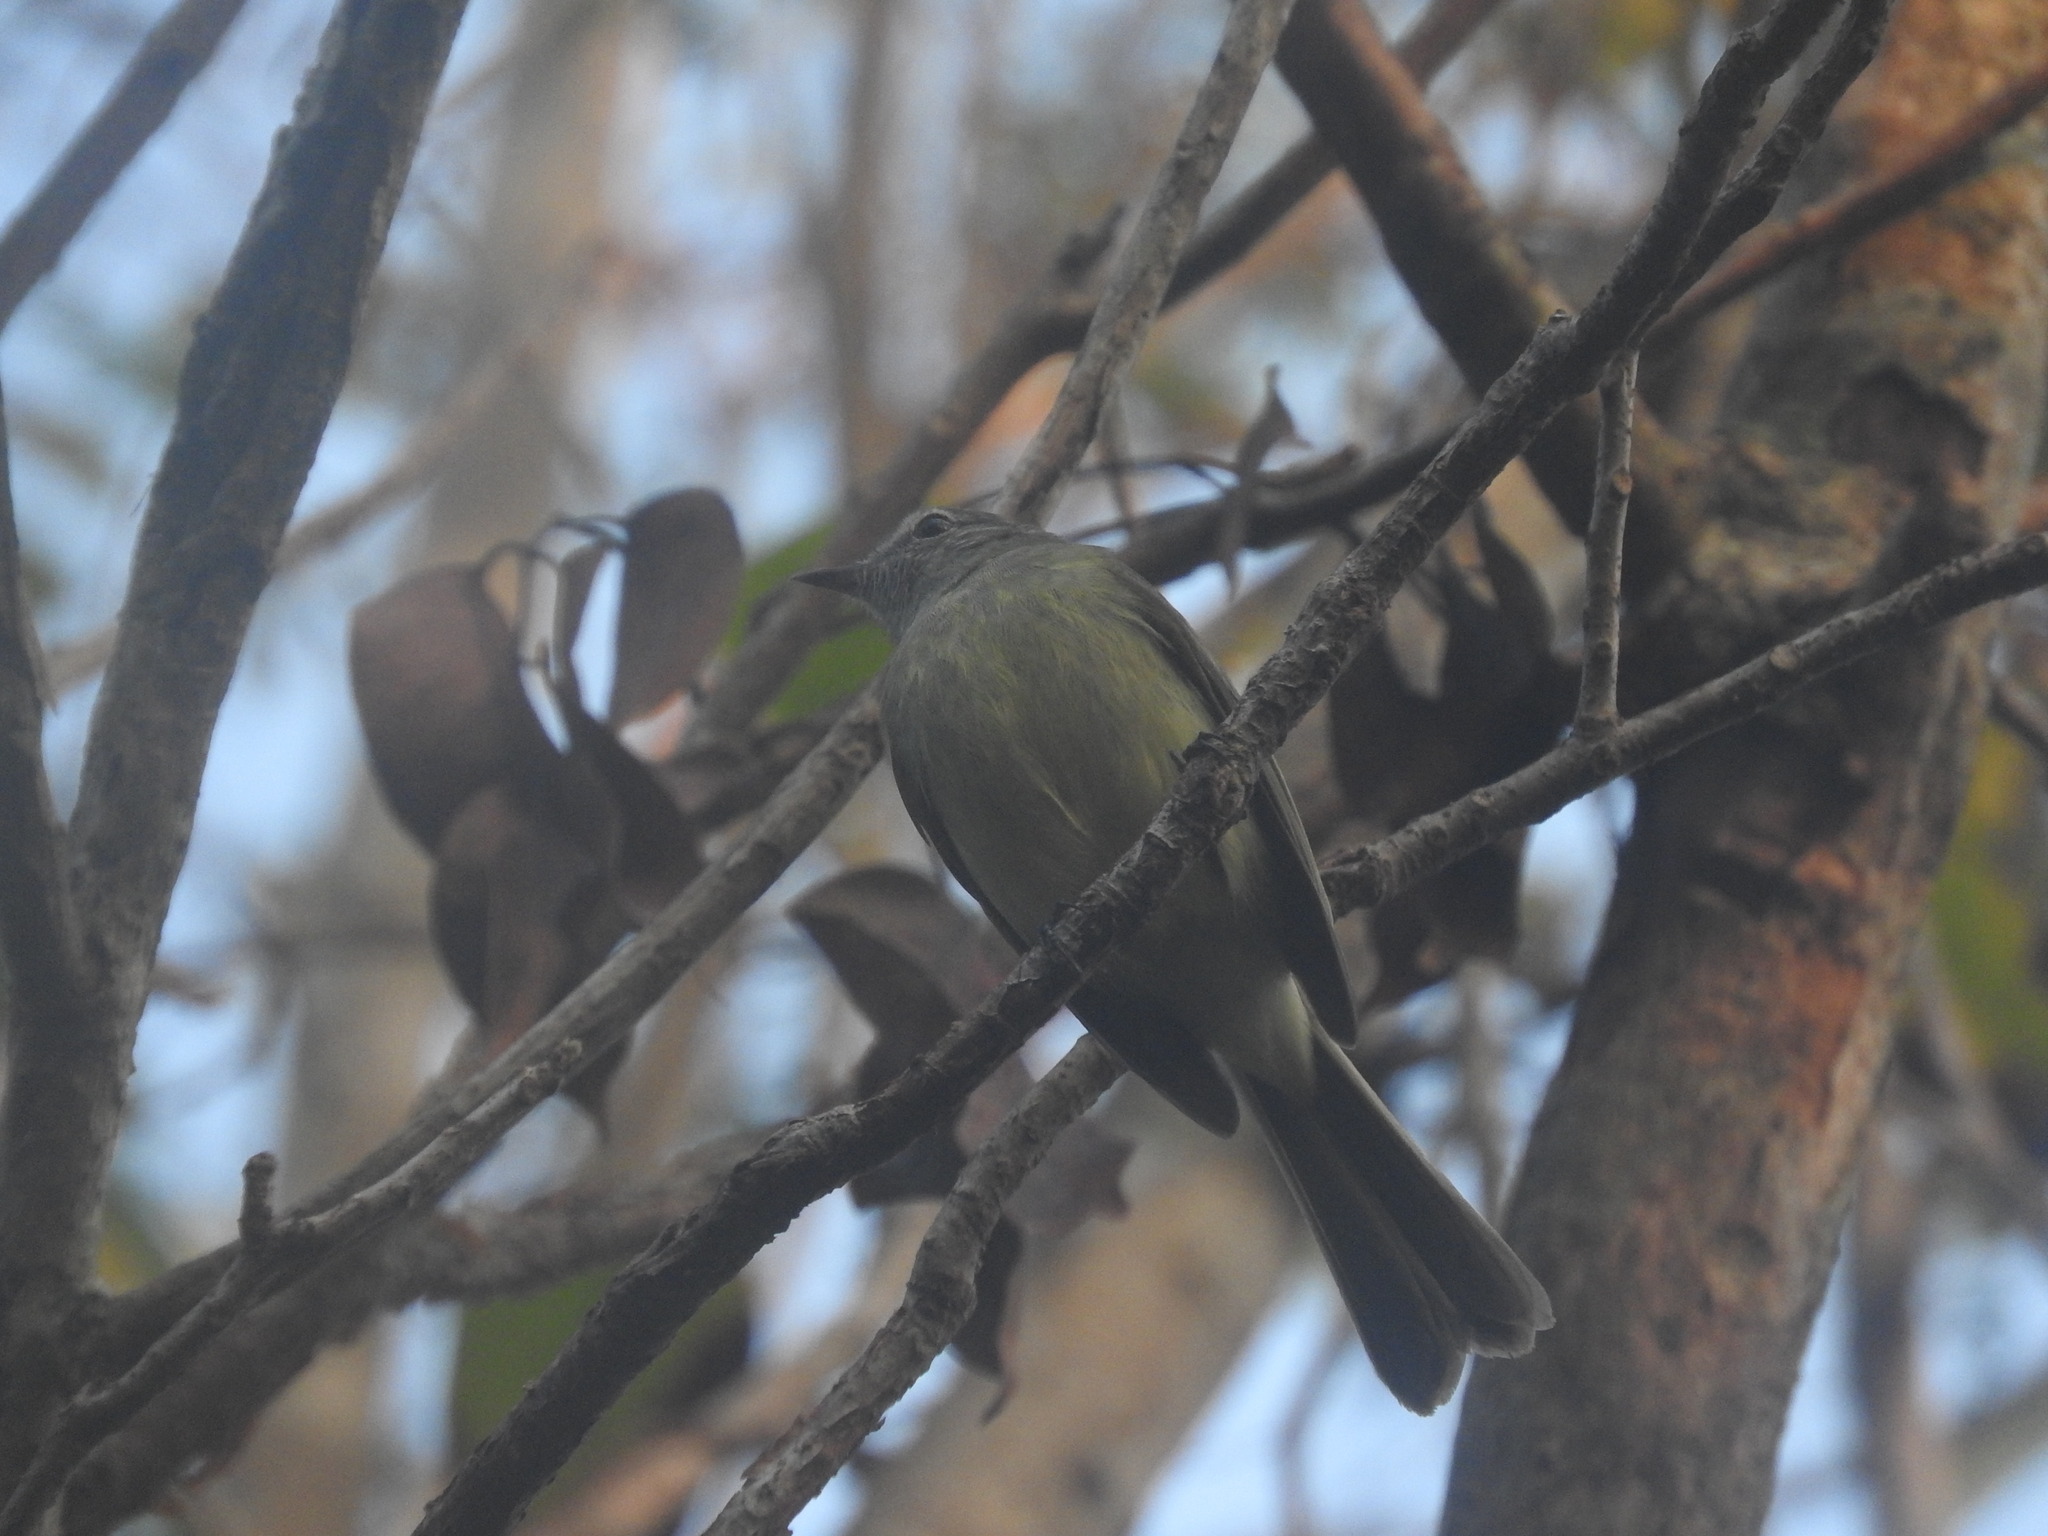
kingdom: Animalia
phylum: Chordata
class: Aves
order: Passeriformes
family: Tyrannidae
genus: Myiopagis
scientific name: Myiopagis viridicata
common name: Greenish elaenia
